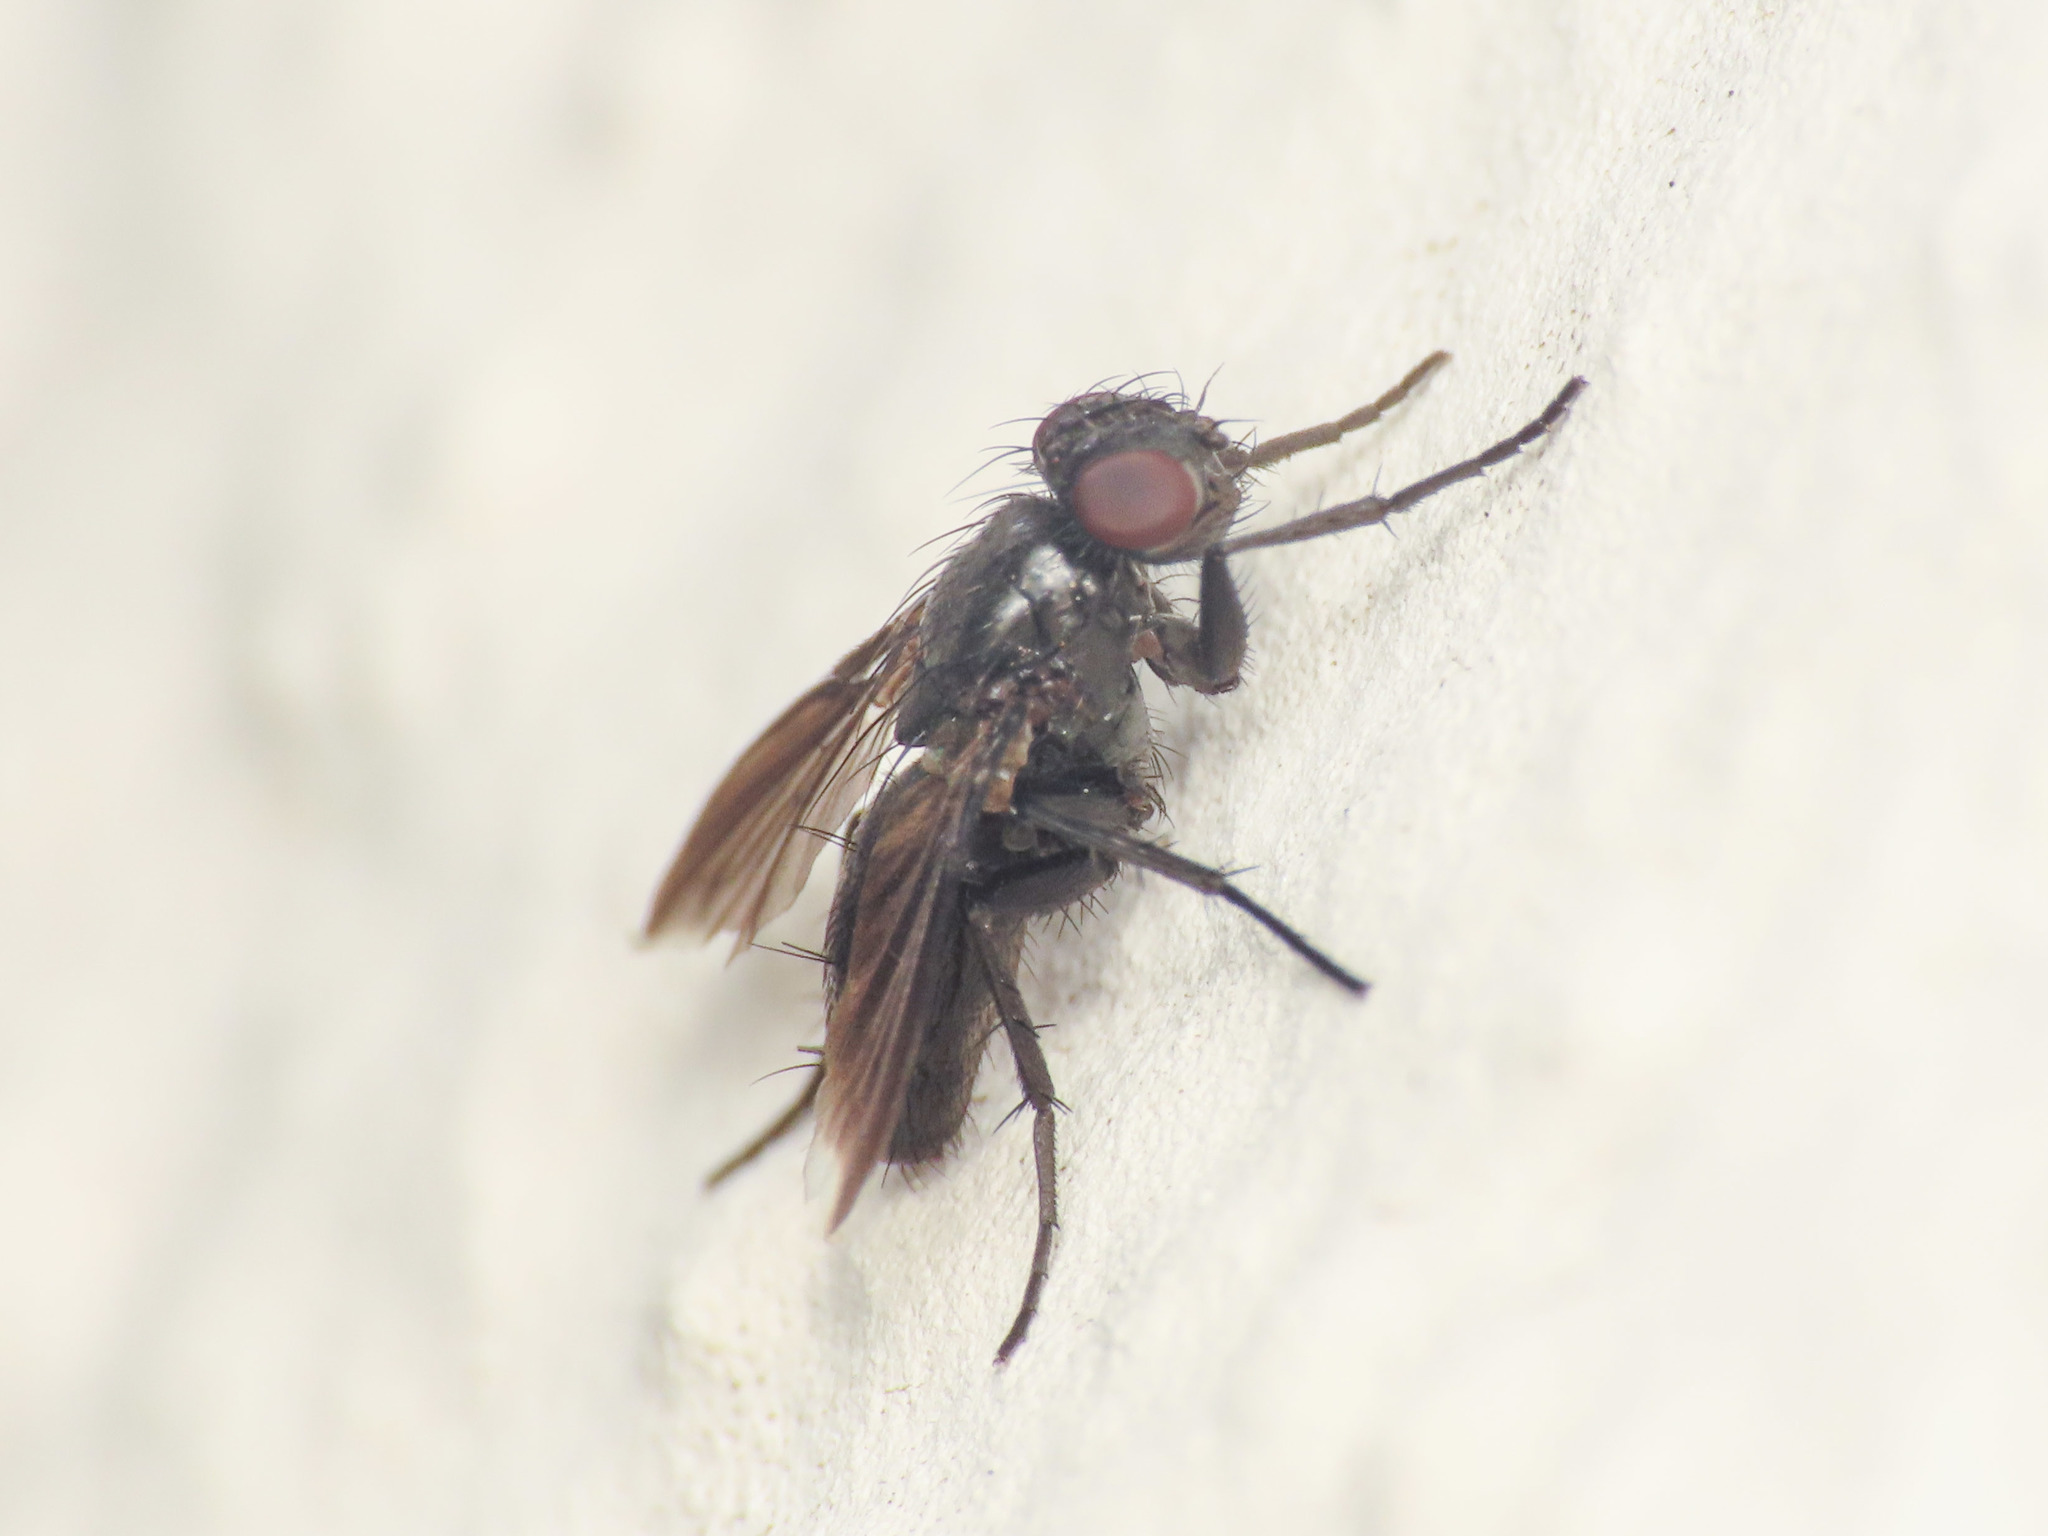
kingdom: Animalia
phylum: Arthropoda
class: Insecta
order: Diptera
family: Calliphoridae
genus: Melanophora
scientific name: Melanophora roralis
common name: Smoky-winged woodlouse-fly
